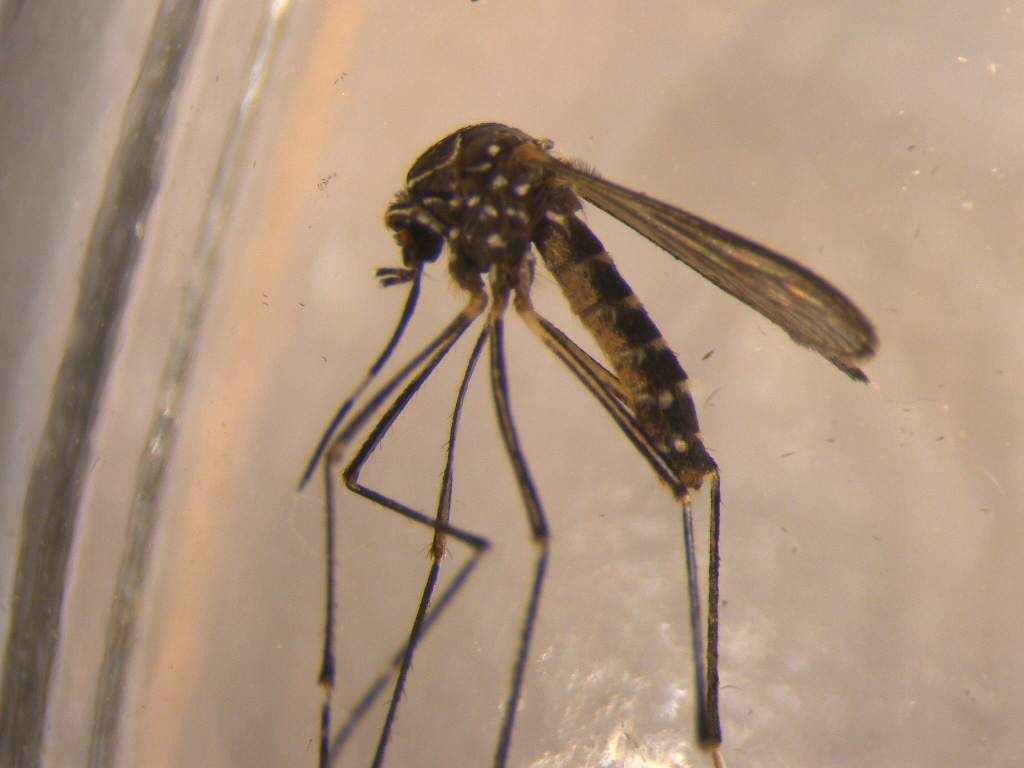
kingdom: Animalia
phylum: Arthropoda
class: Insecta
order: Diptera
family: Culicidae
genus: Aedes
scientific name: Aedes notoscriptus
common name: Australian backyard mosquito
